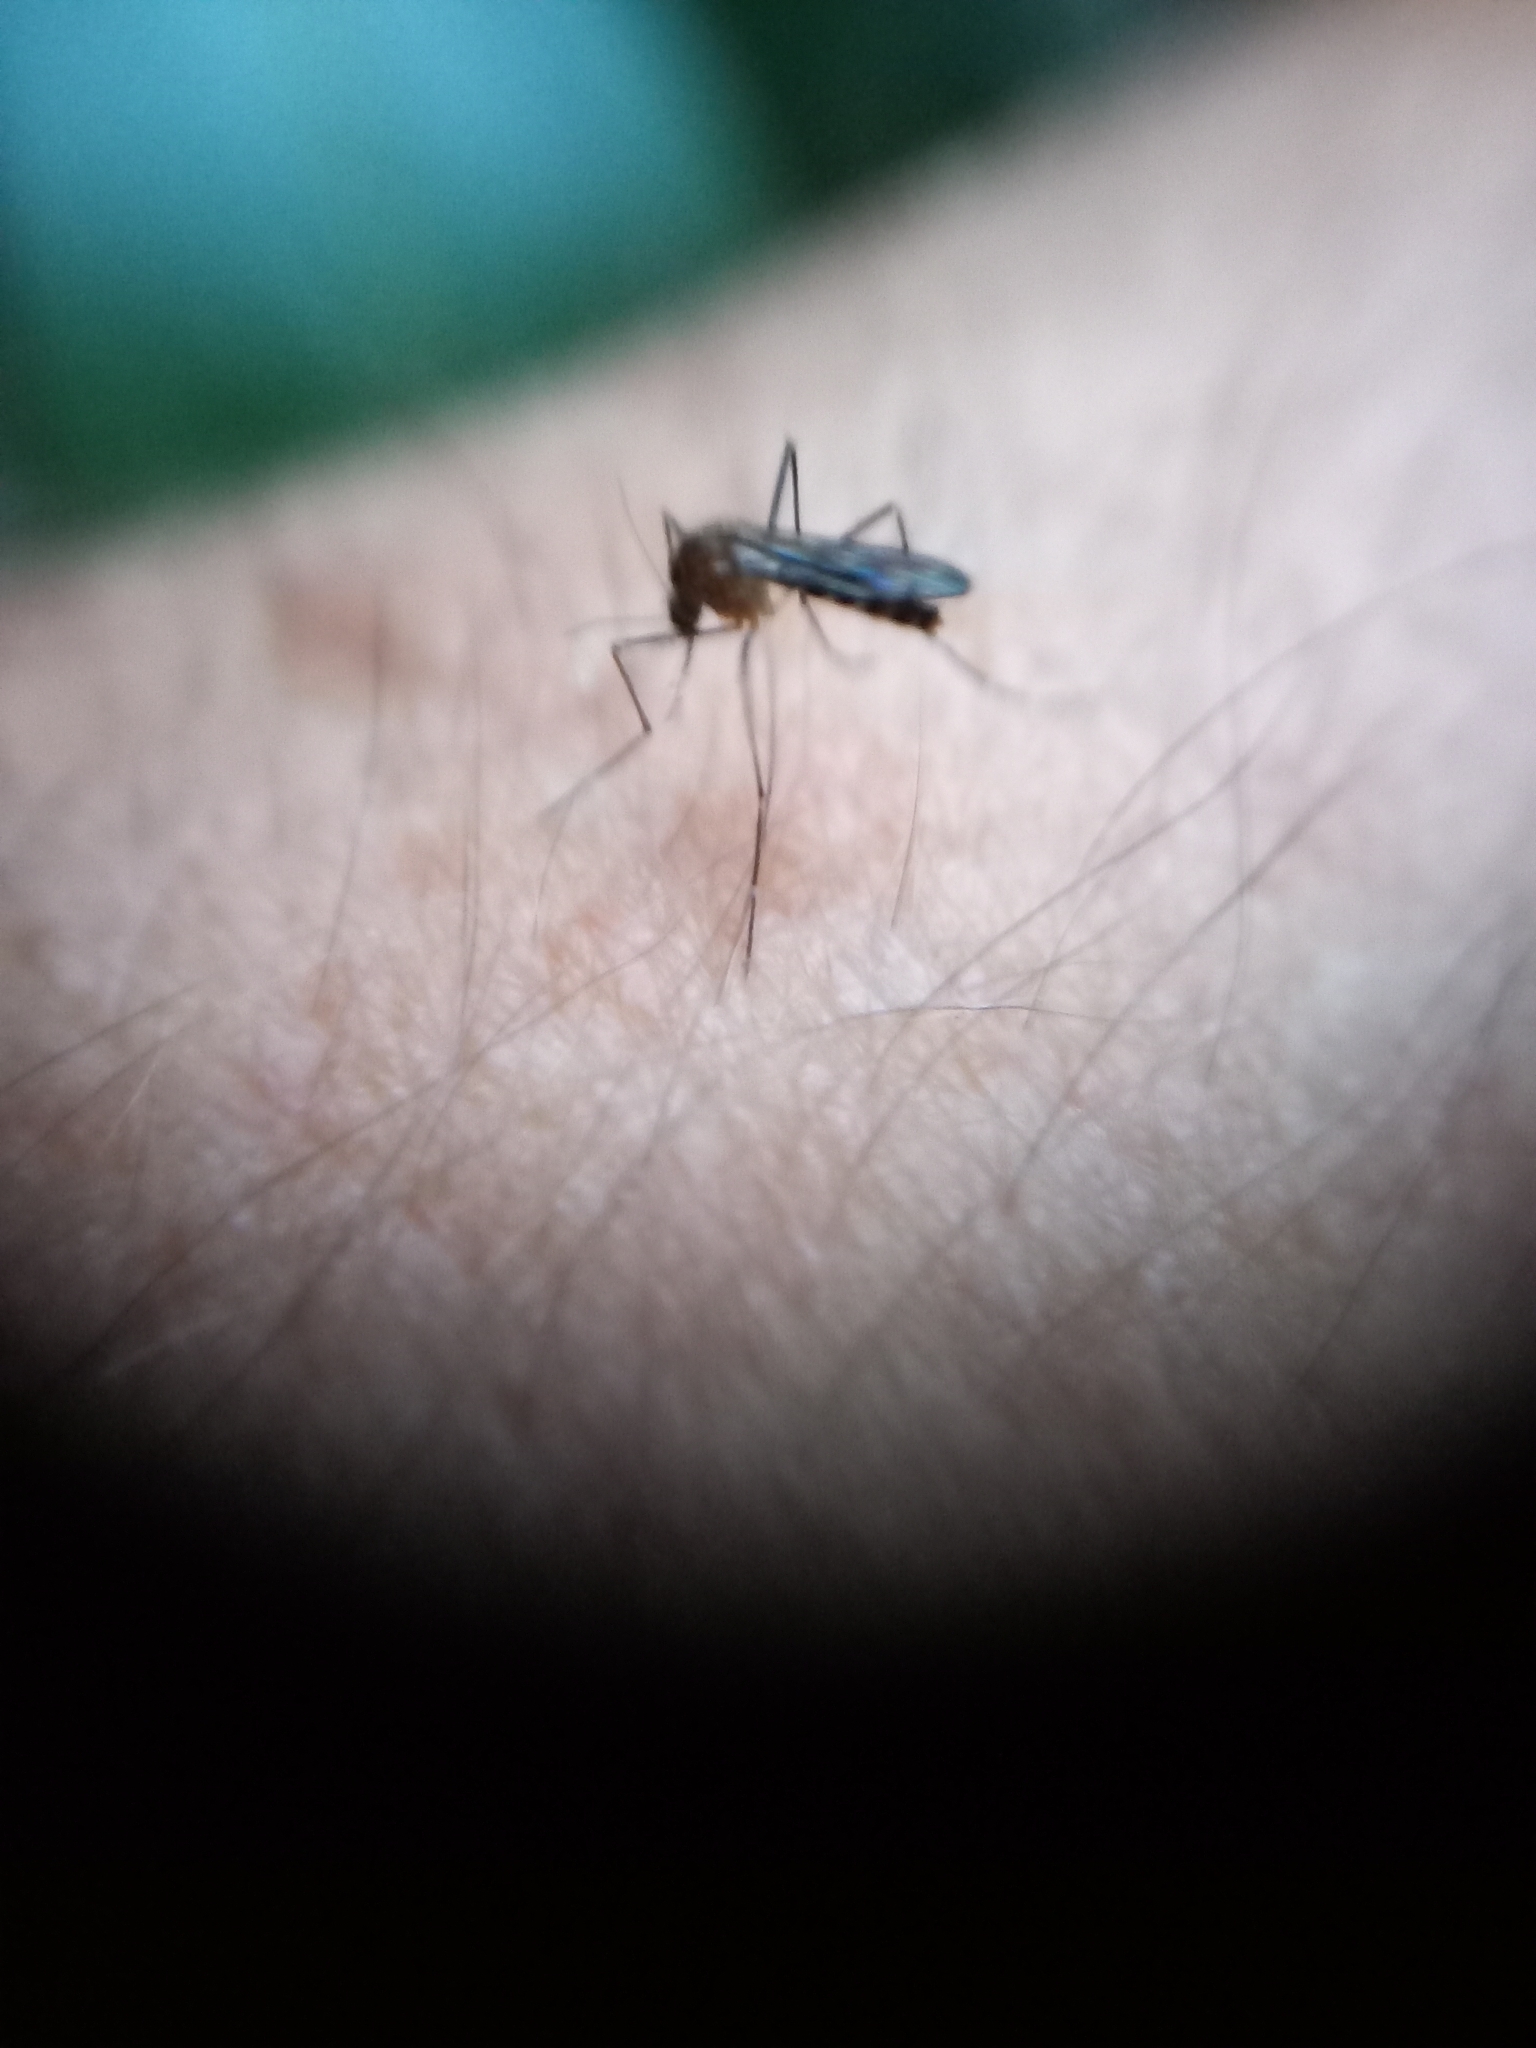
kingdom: Animalia
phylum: Arthropoda
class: Insecta
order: Diptera
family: Culicidae
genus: Aedes
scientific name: Aedes notoscriptus
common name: Australian backyard mosquito
